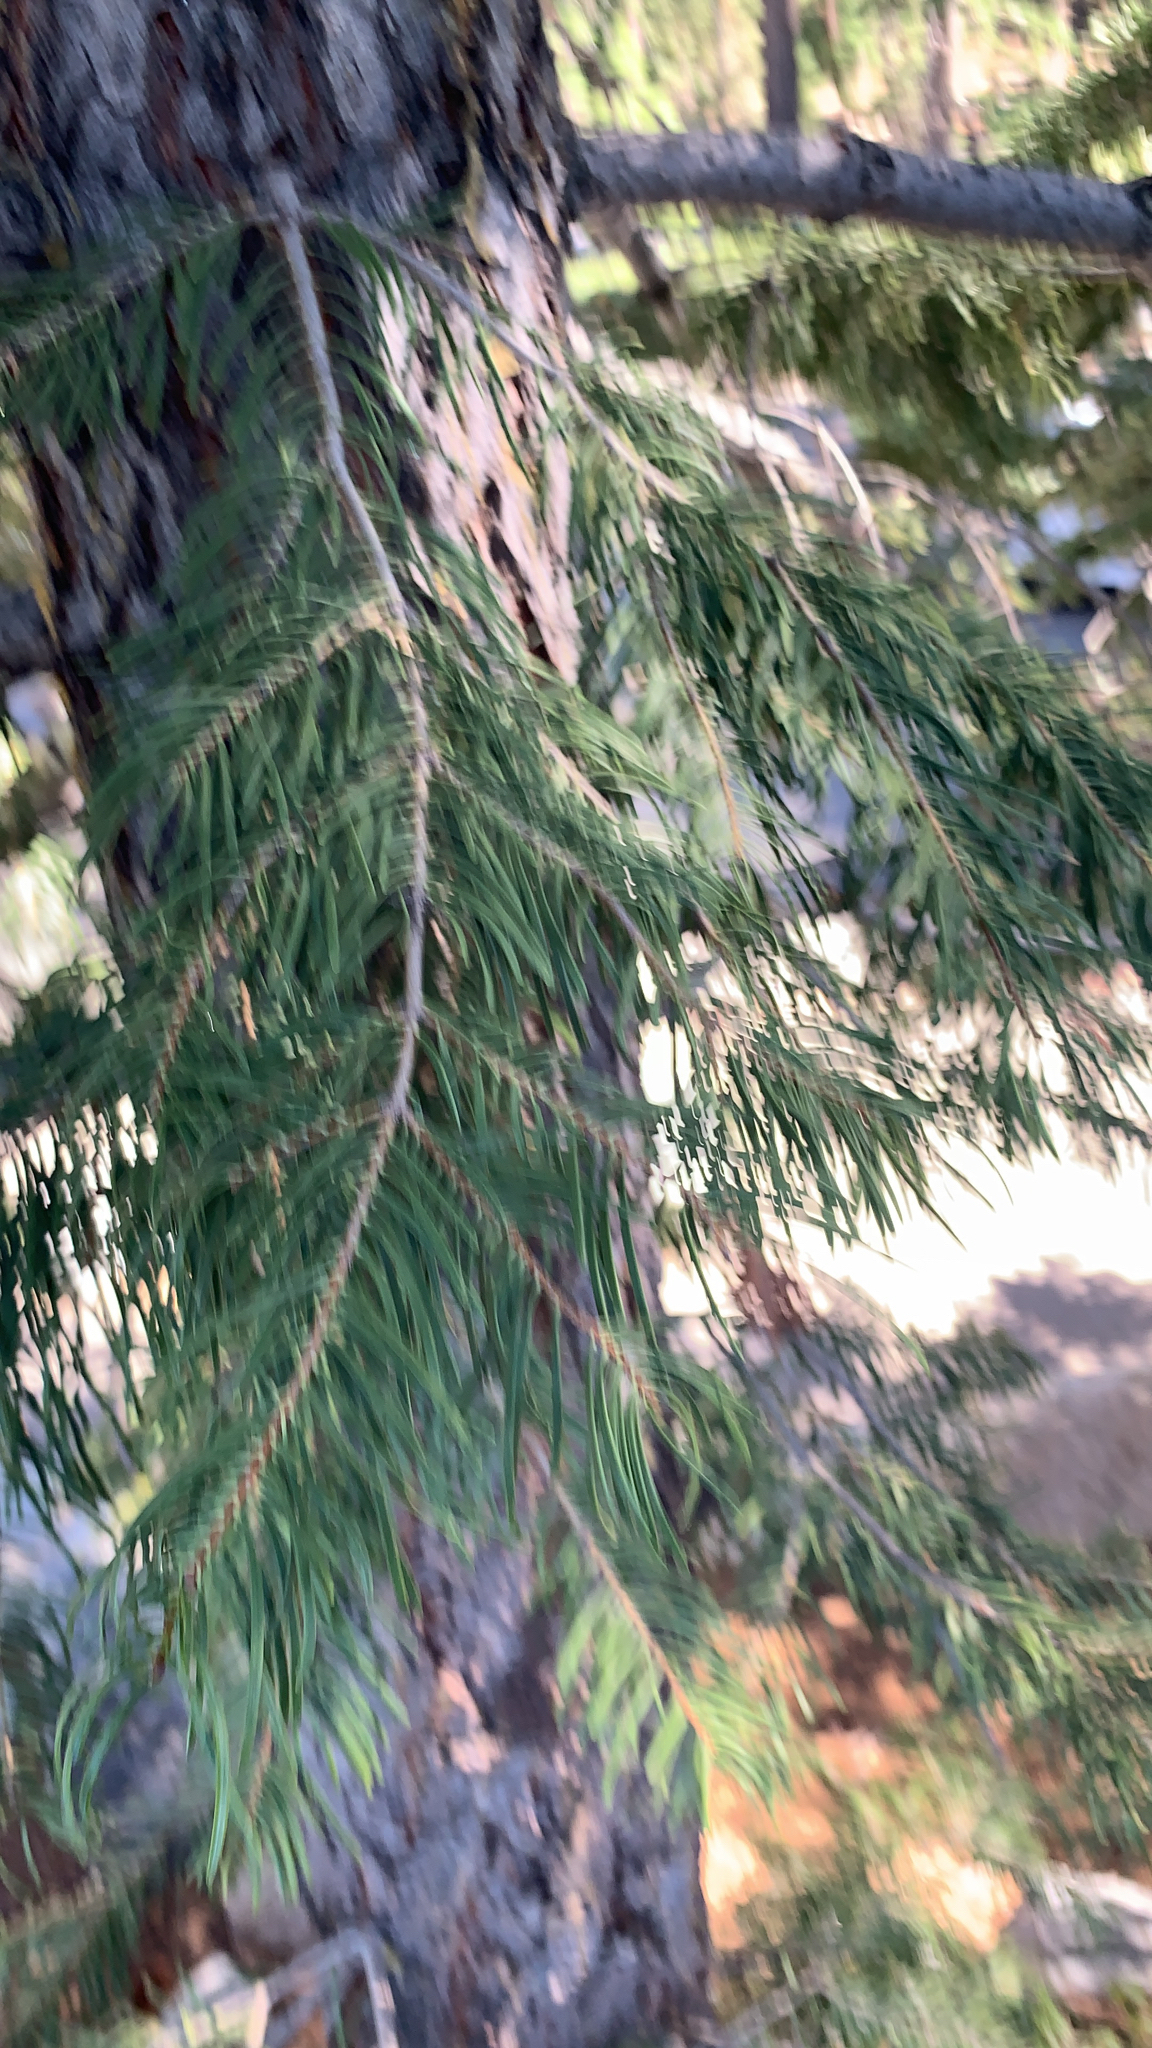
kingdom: Plantae
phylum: Tracheophyta
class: Pinopsida
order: Pinales
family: Pinaceae
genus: Abies
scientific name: Abies concolor
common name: Colorado fir
